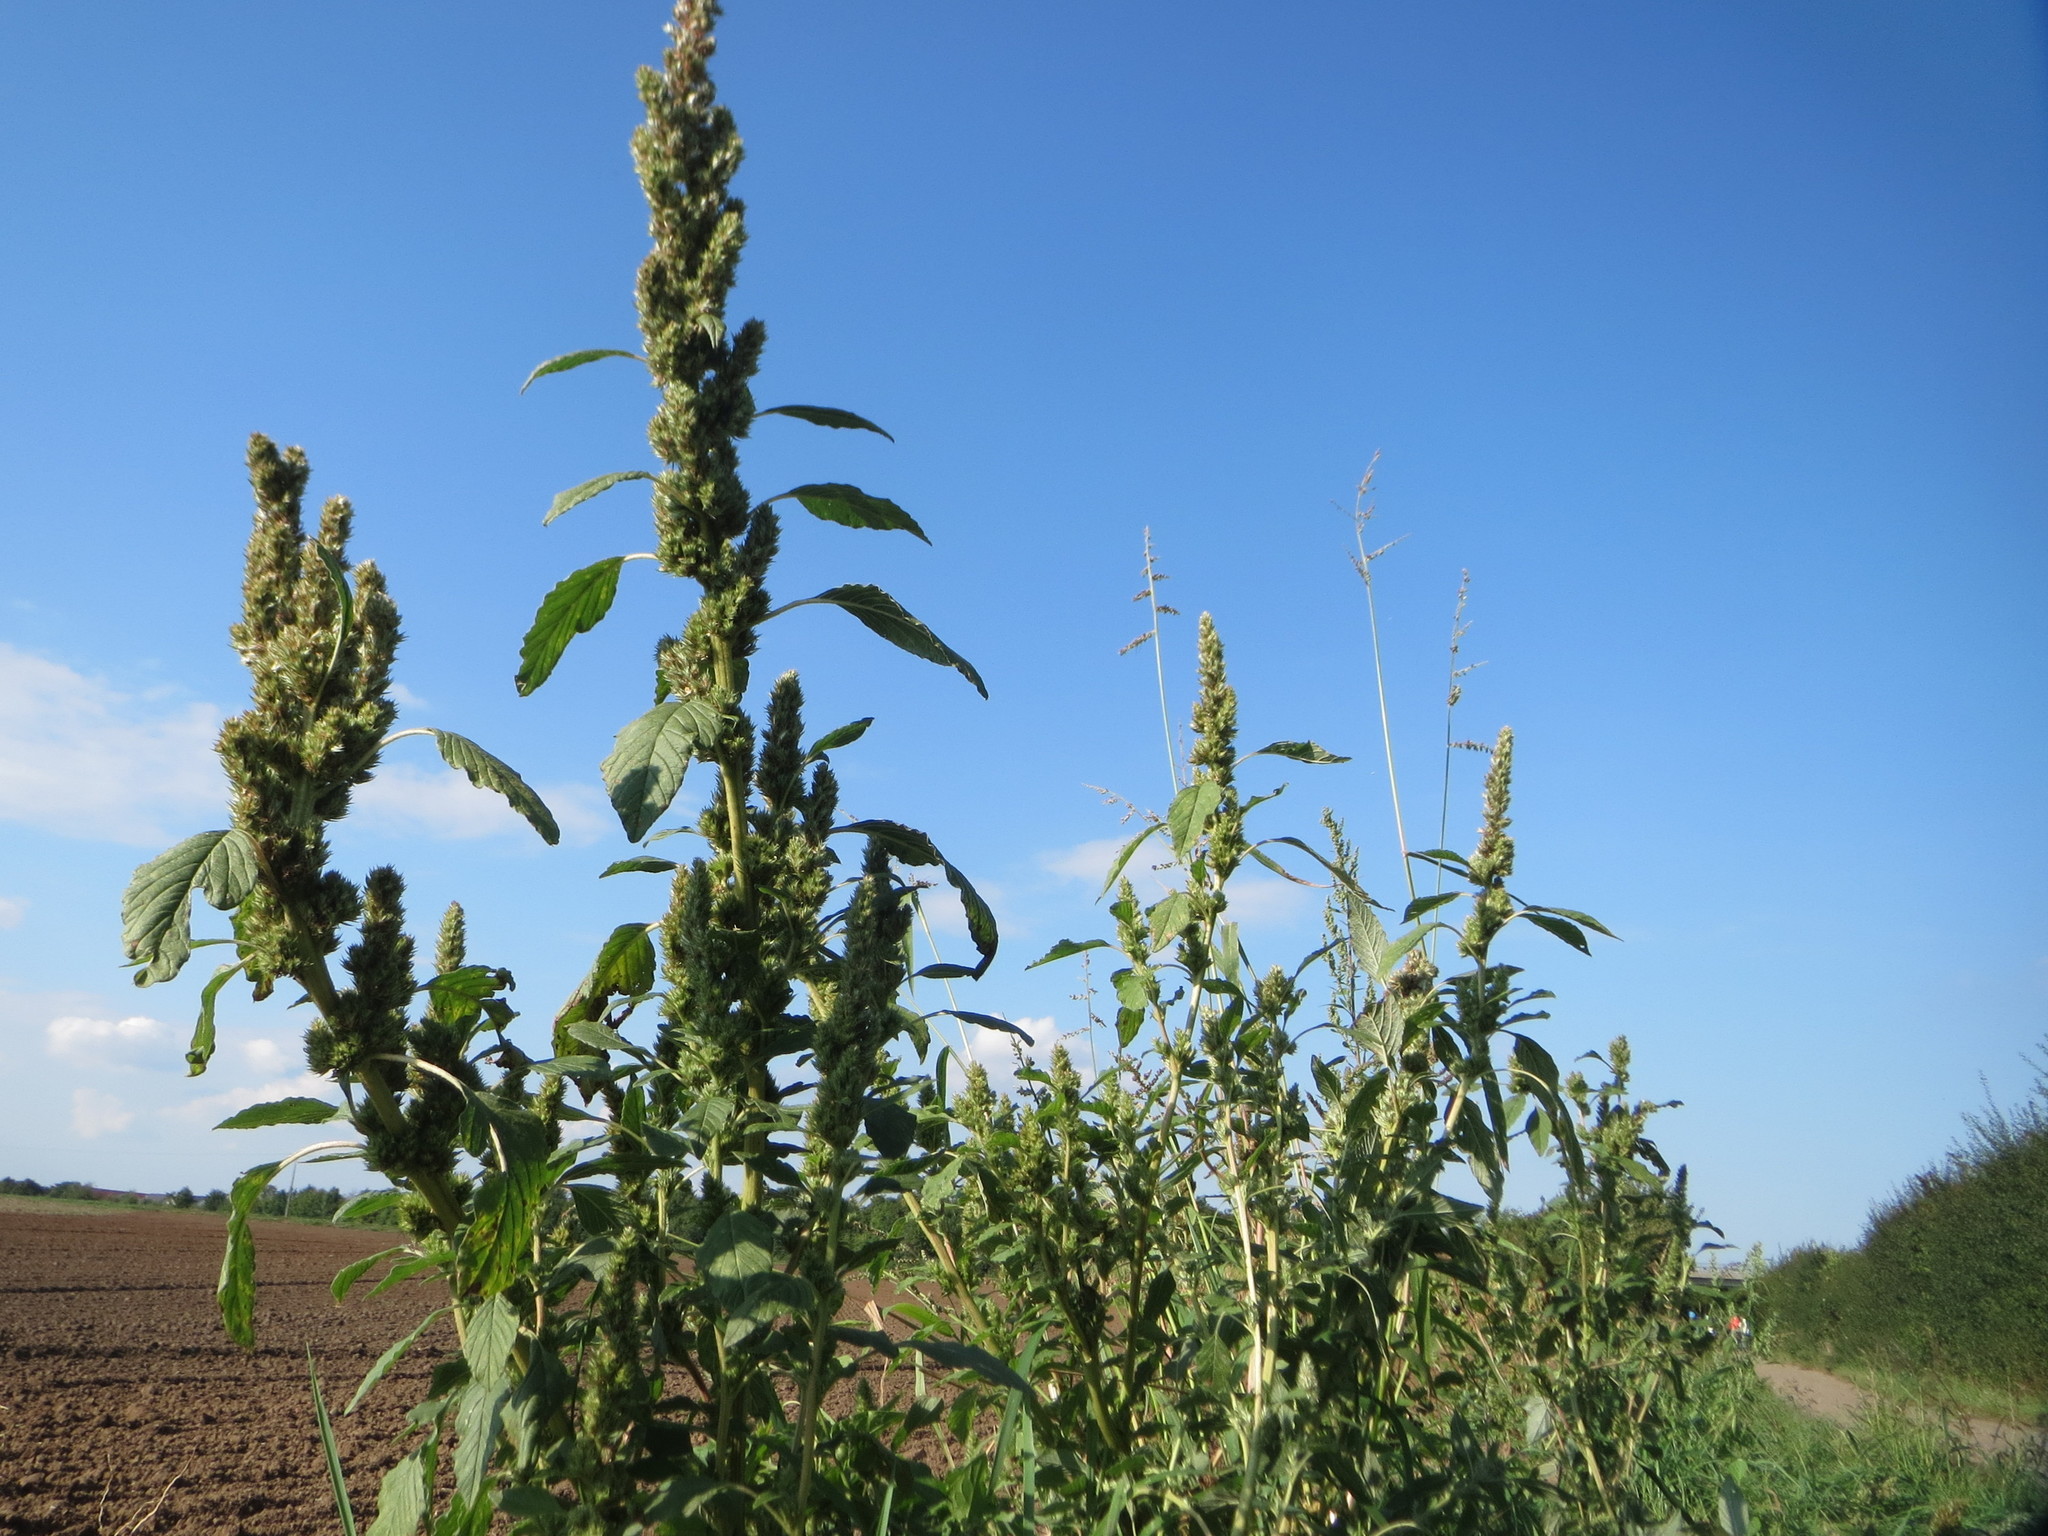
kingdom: Plantae
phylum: Tracheophyta
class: Magnoliopsida
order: Caryophyllales
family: Amaranthaceae
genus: Amaranthus
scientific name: Amaranthus retroflexus
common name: Redroot amaranth
